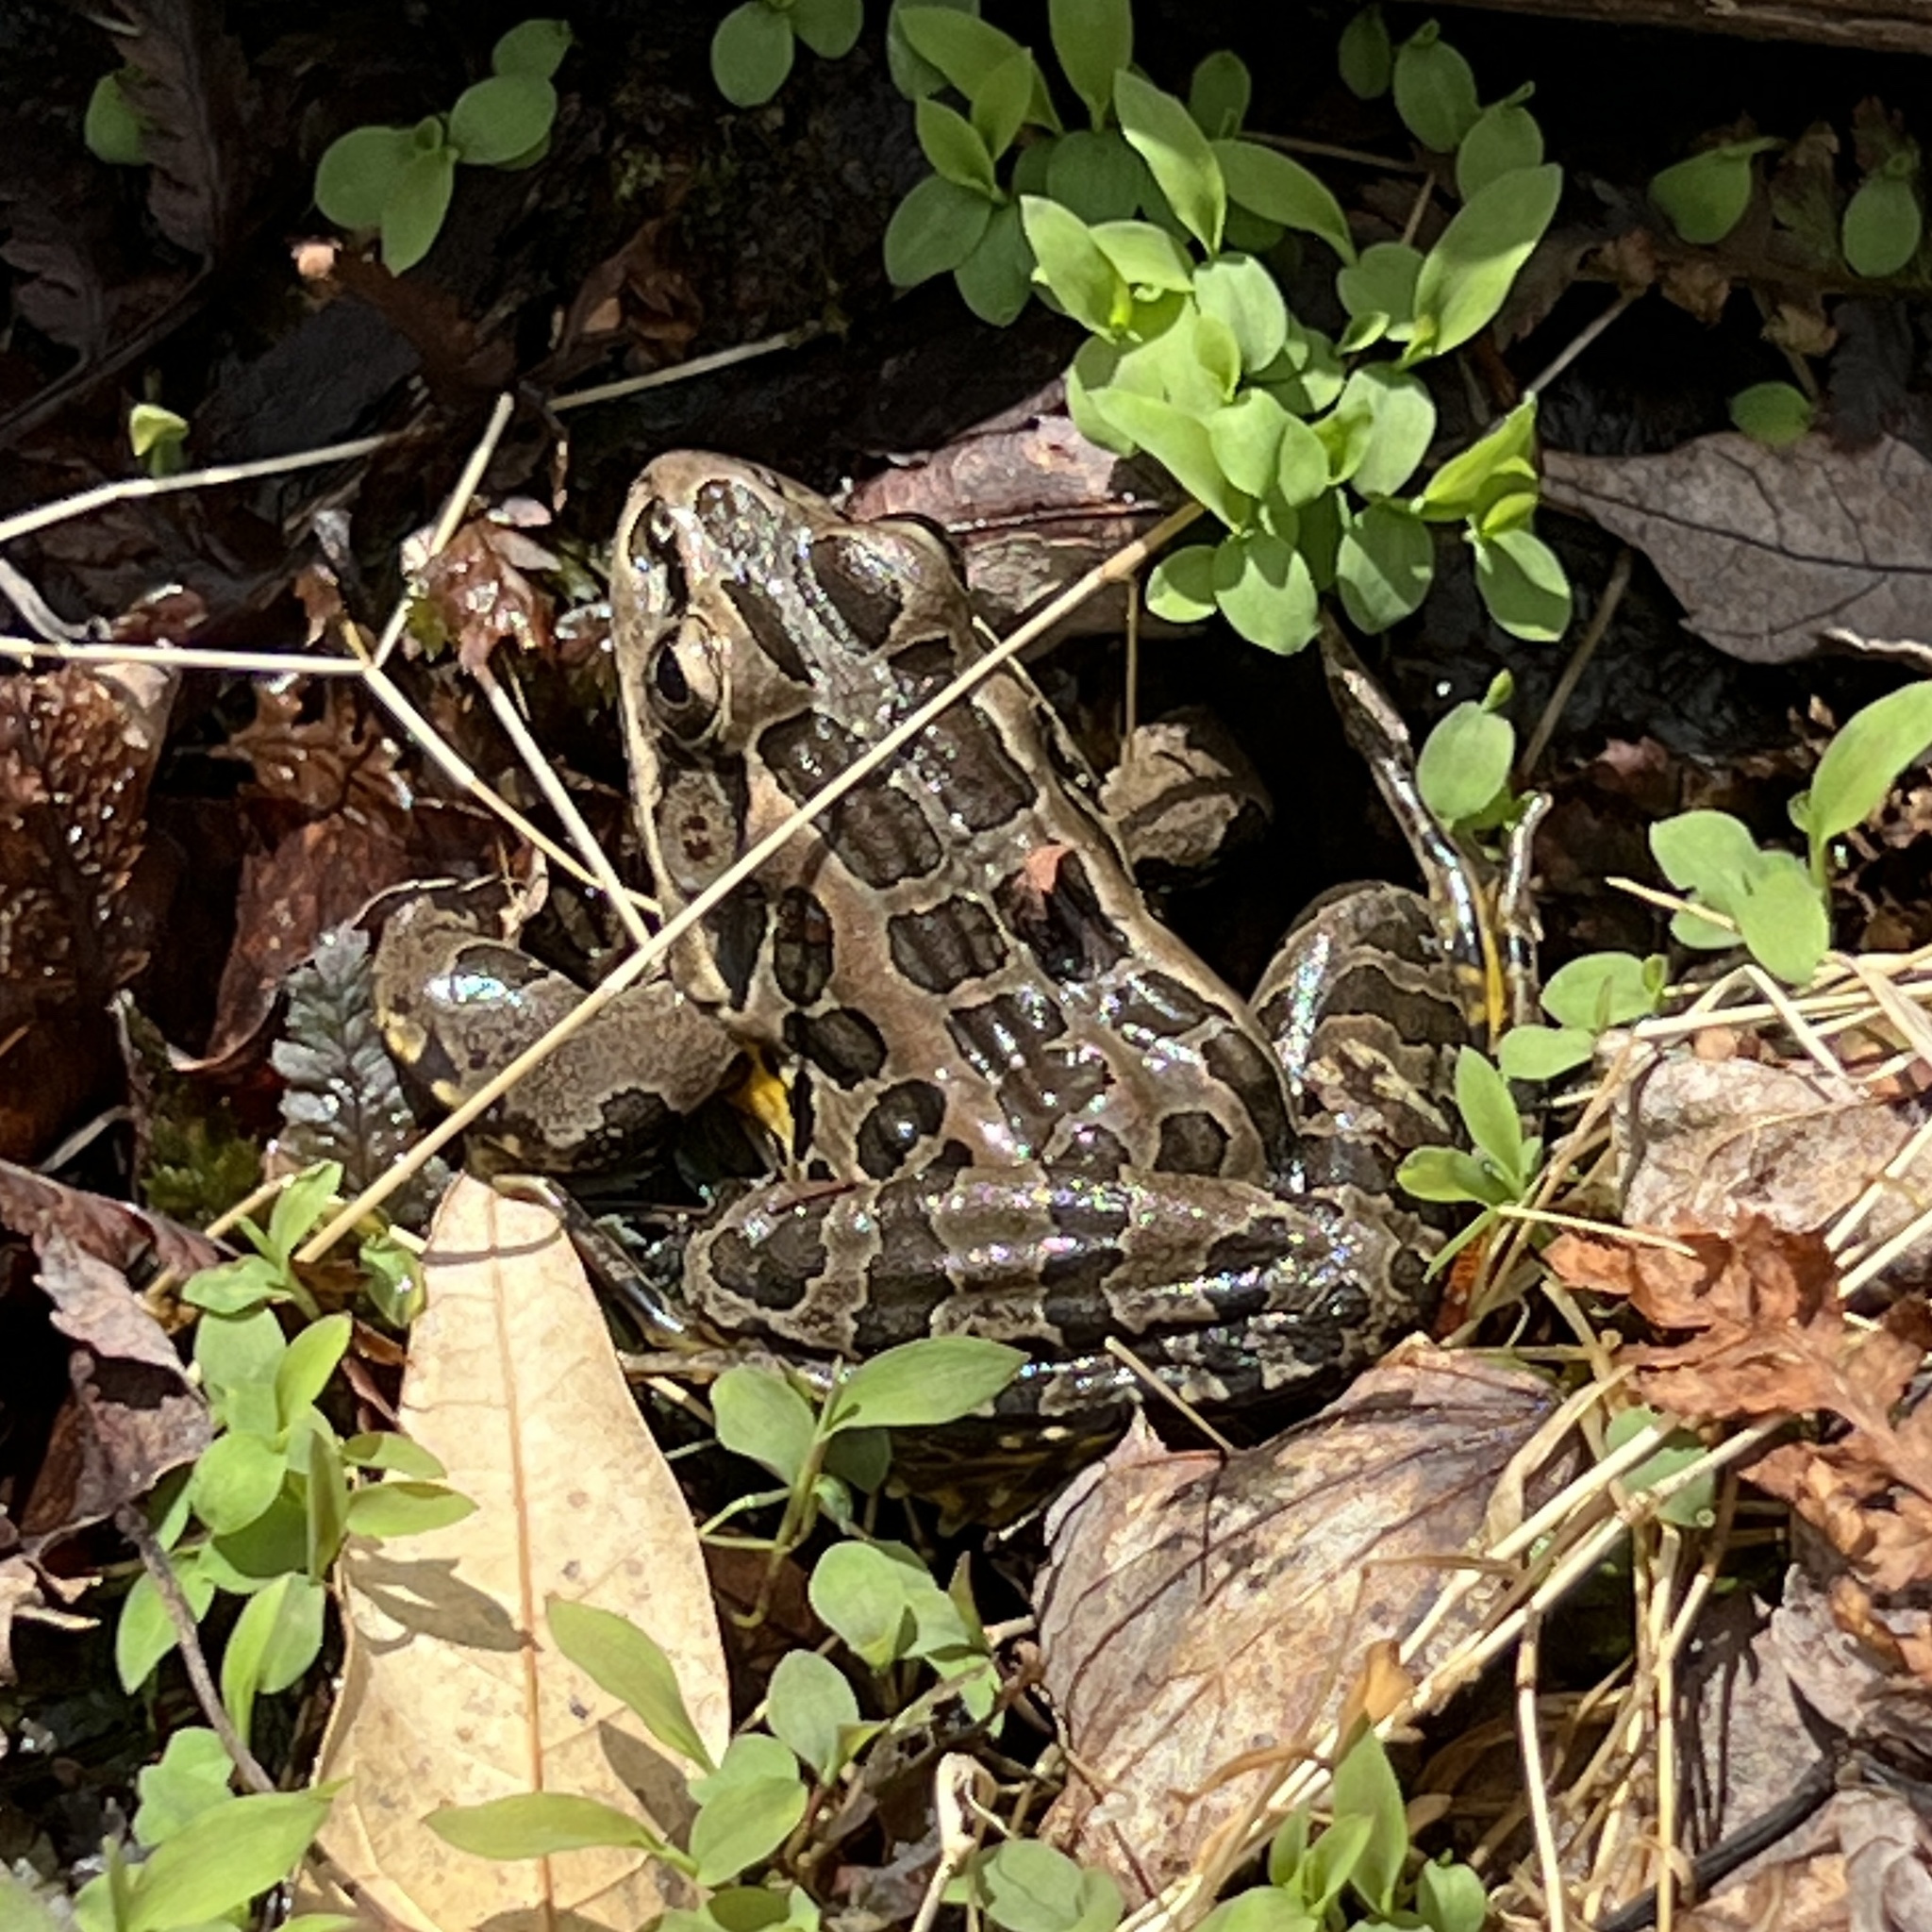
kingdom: Animalia
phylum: Chordata
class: Amphibia
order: Anura
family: Ranidae
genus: Lithobates
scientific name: Lithobates palustris
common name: Pickerel frog
